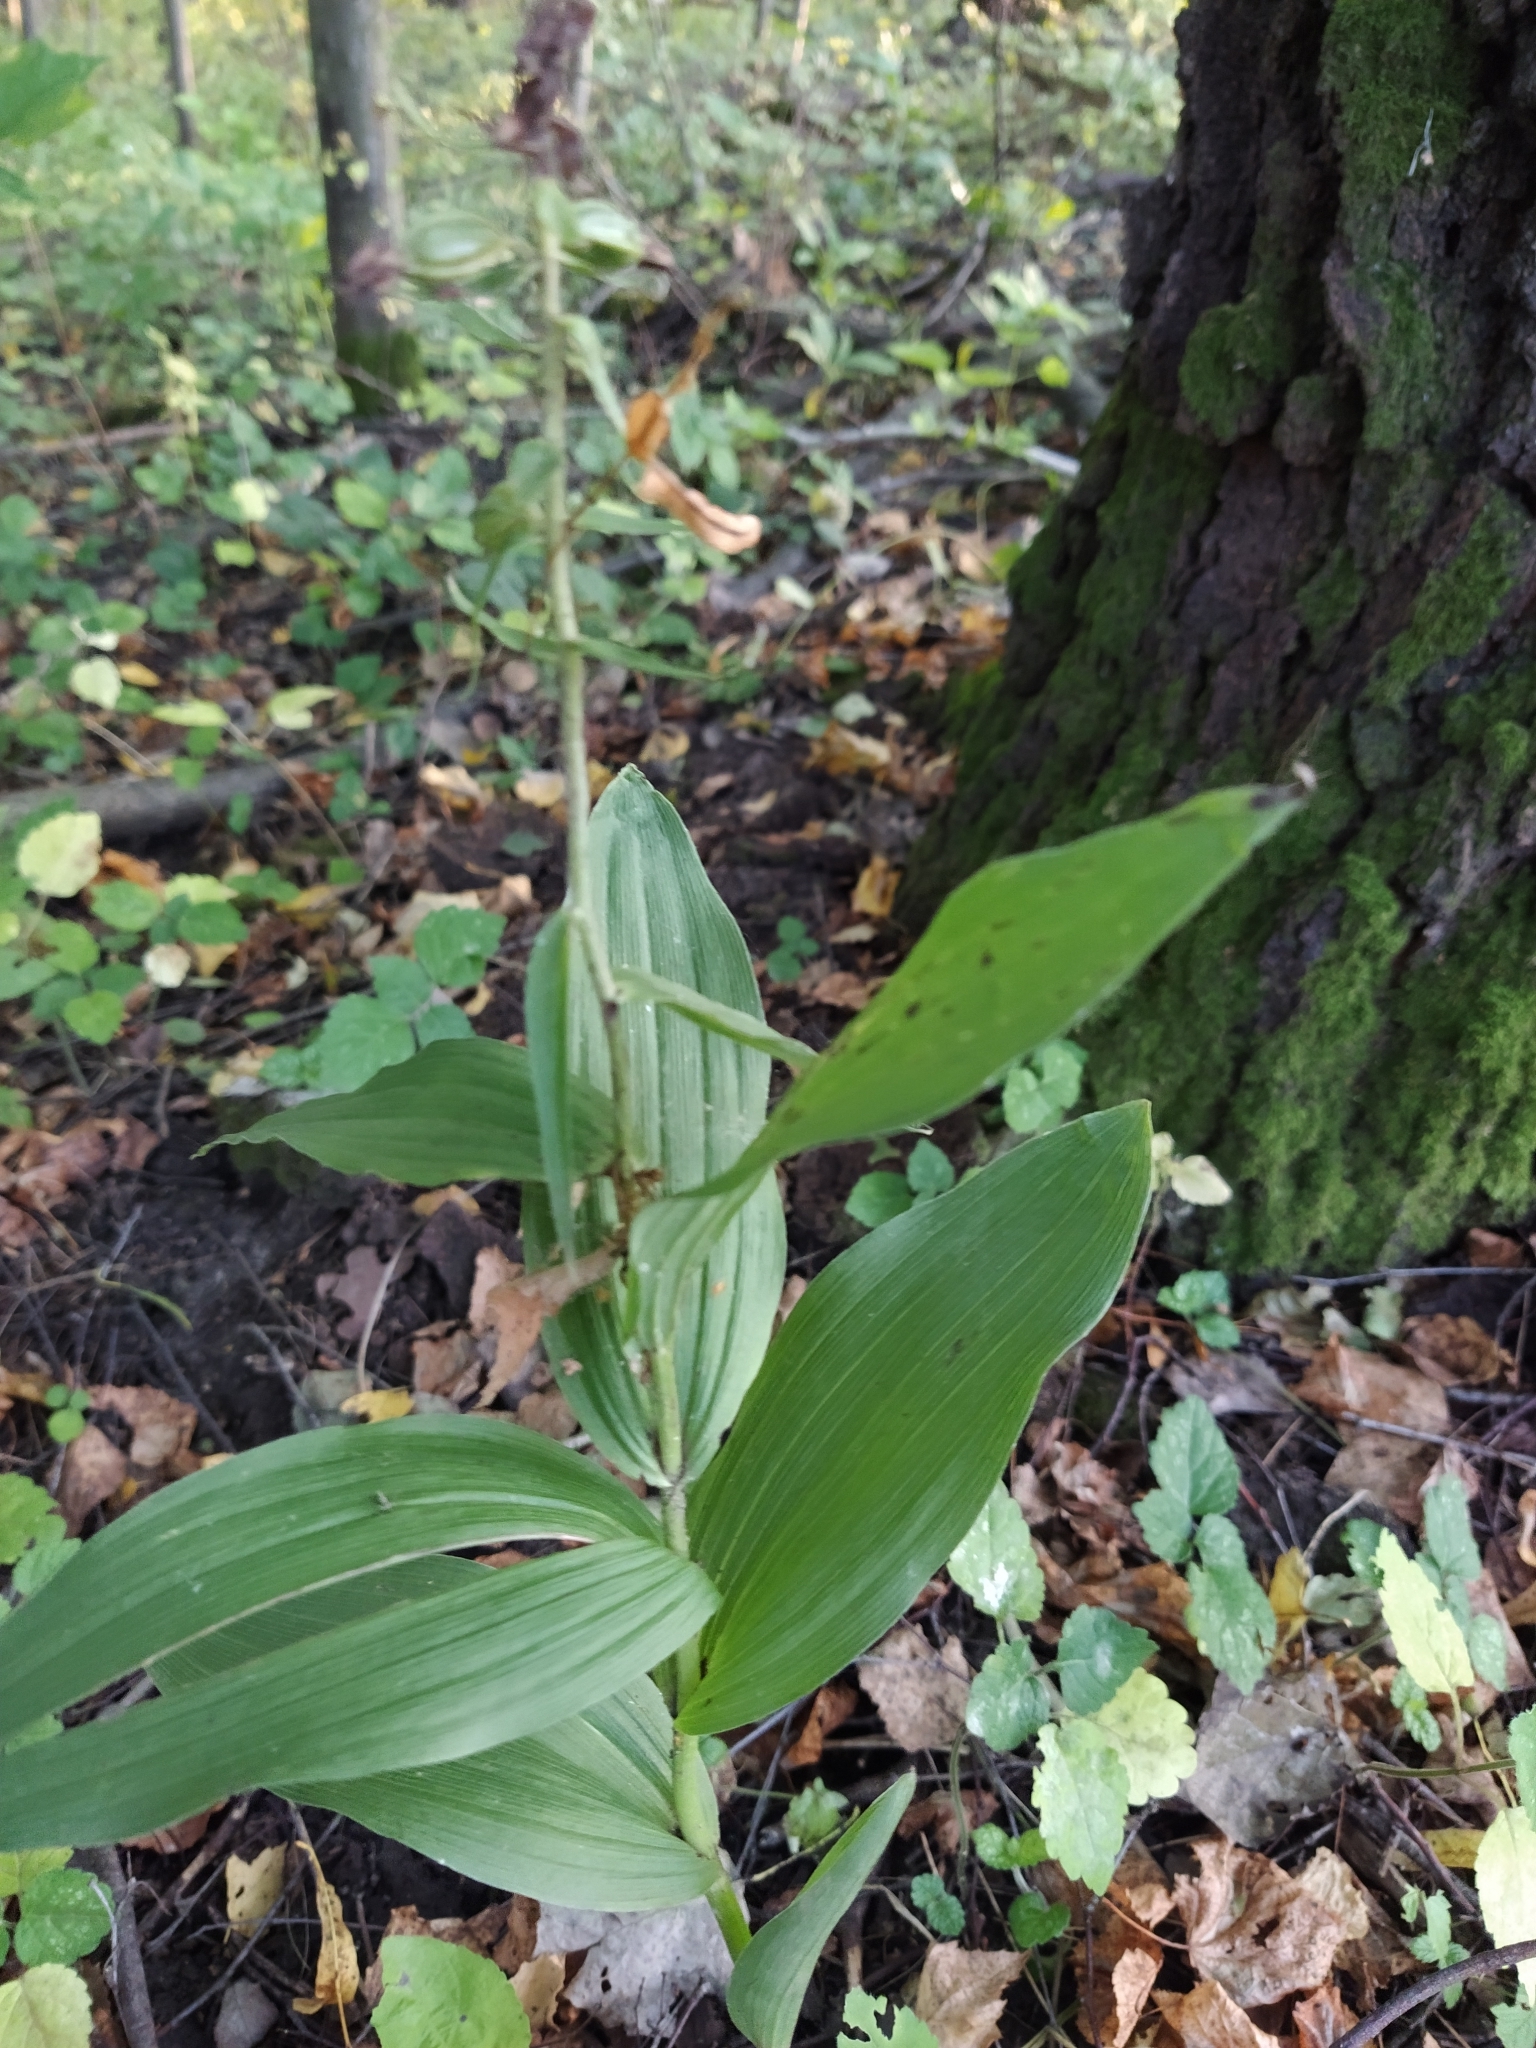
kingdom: Plantae
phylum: Tracheophyta
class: Liliopsida
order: Asparagales
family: Orchidaceae
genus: Epipactis
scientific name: Epipactis helleborine
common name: Broad-leaved helleborine
